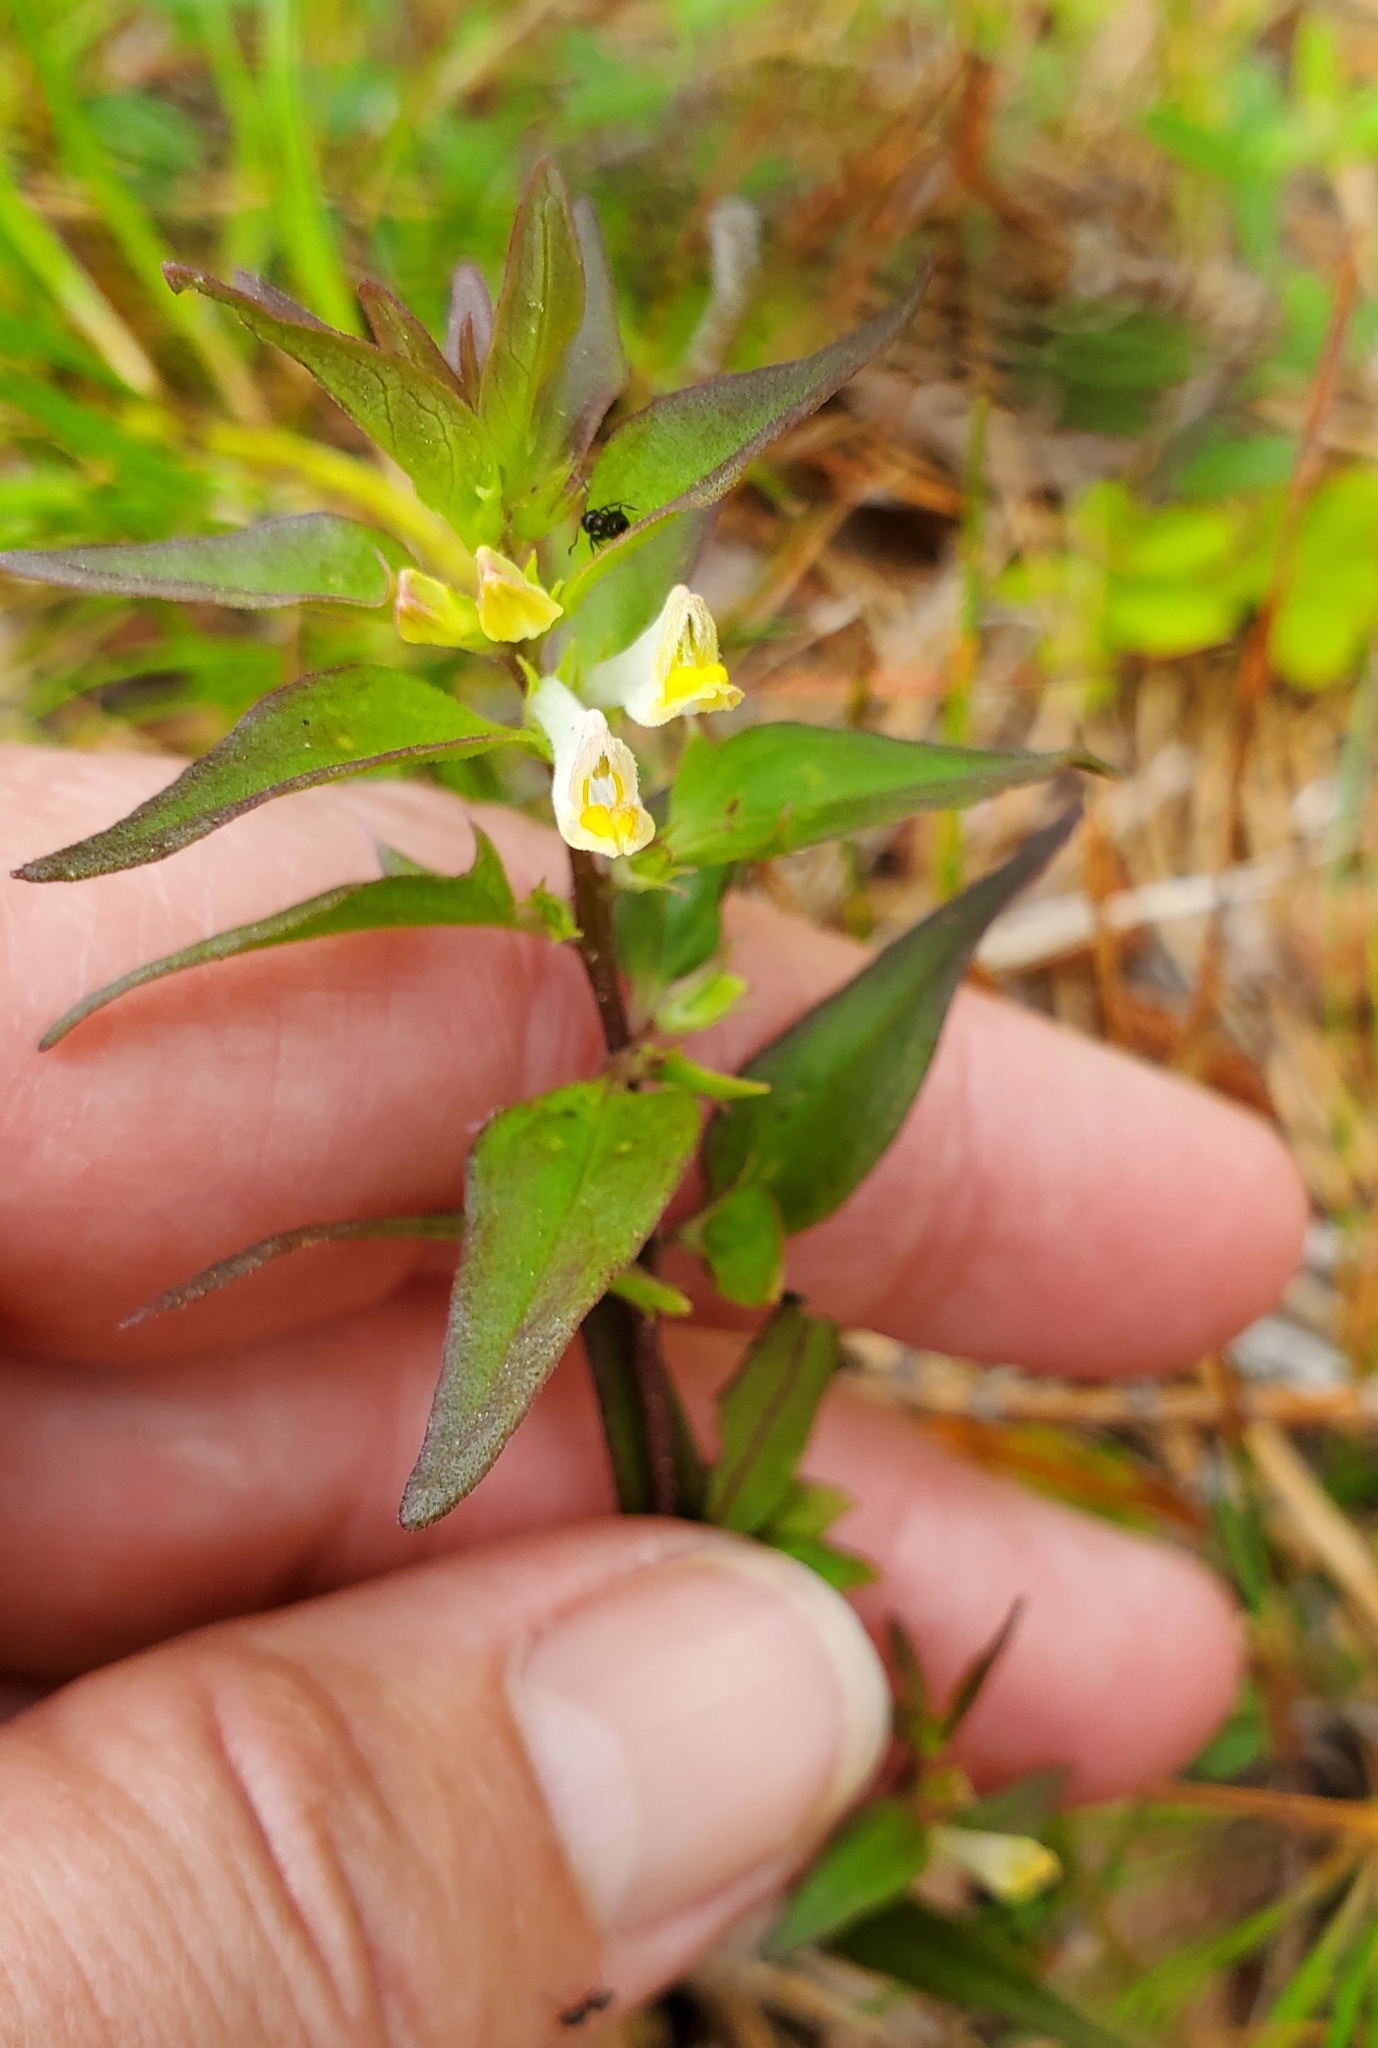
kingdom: Plantae
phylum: Tracheophyta
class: Magnoliopsida
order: Lamiales
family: Orobanchaceae
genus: Melampyrum
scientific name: Melampyrum lineare
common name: American cow-wheat
